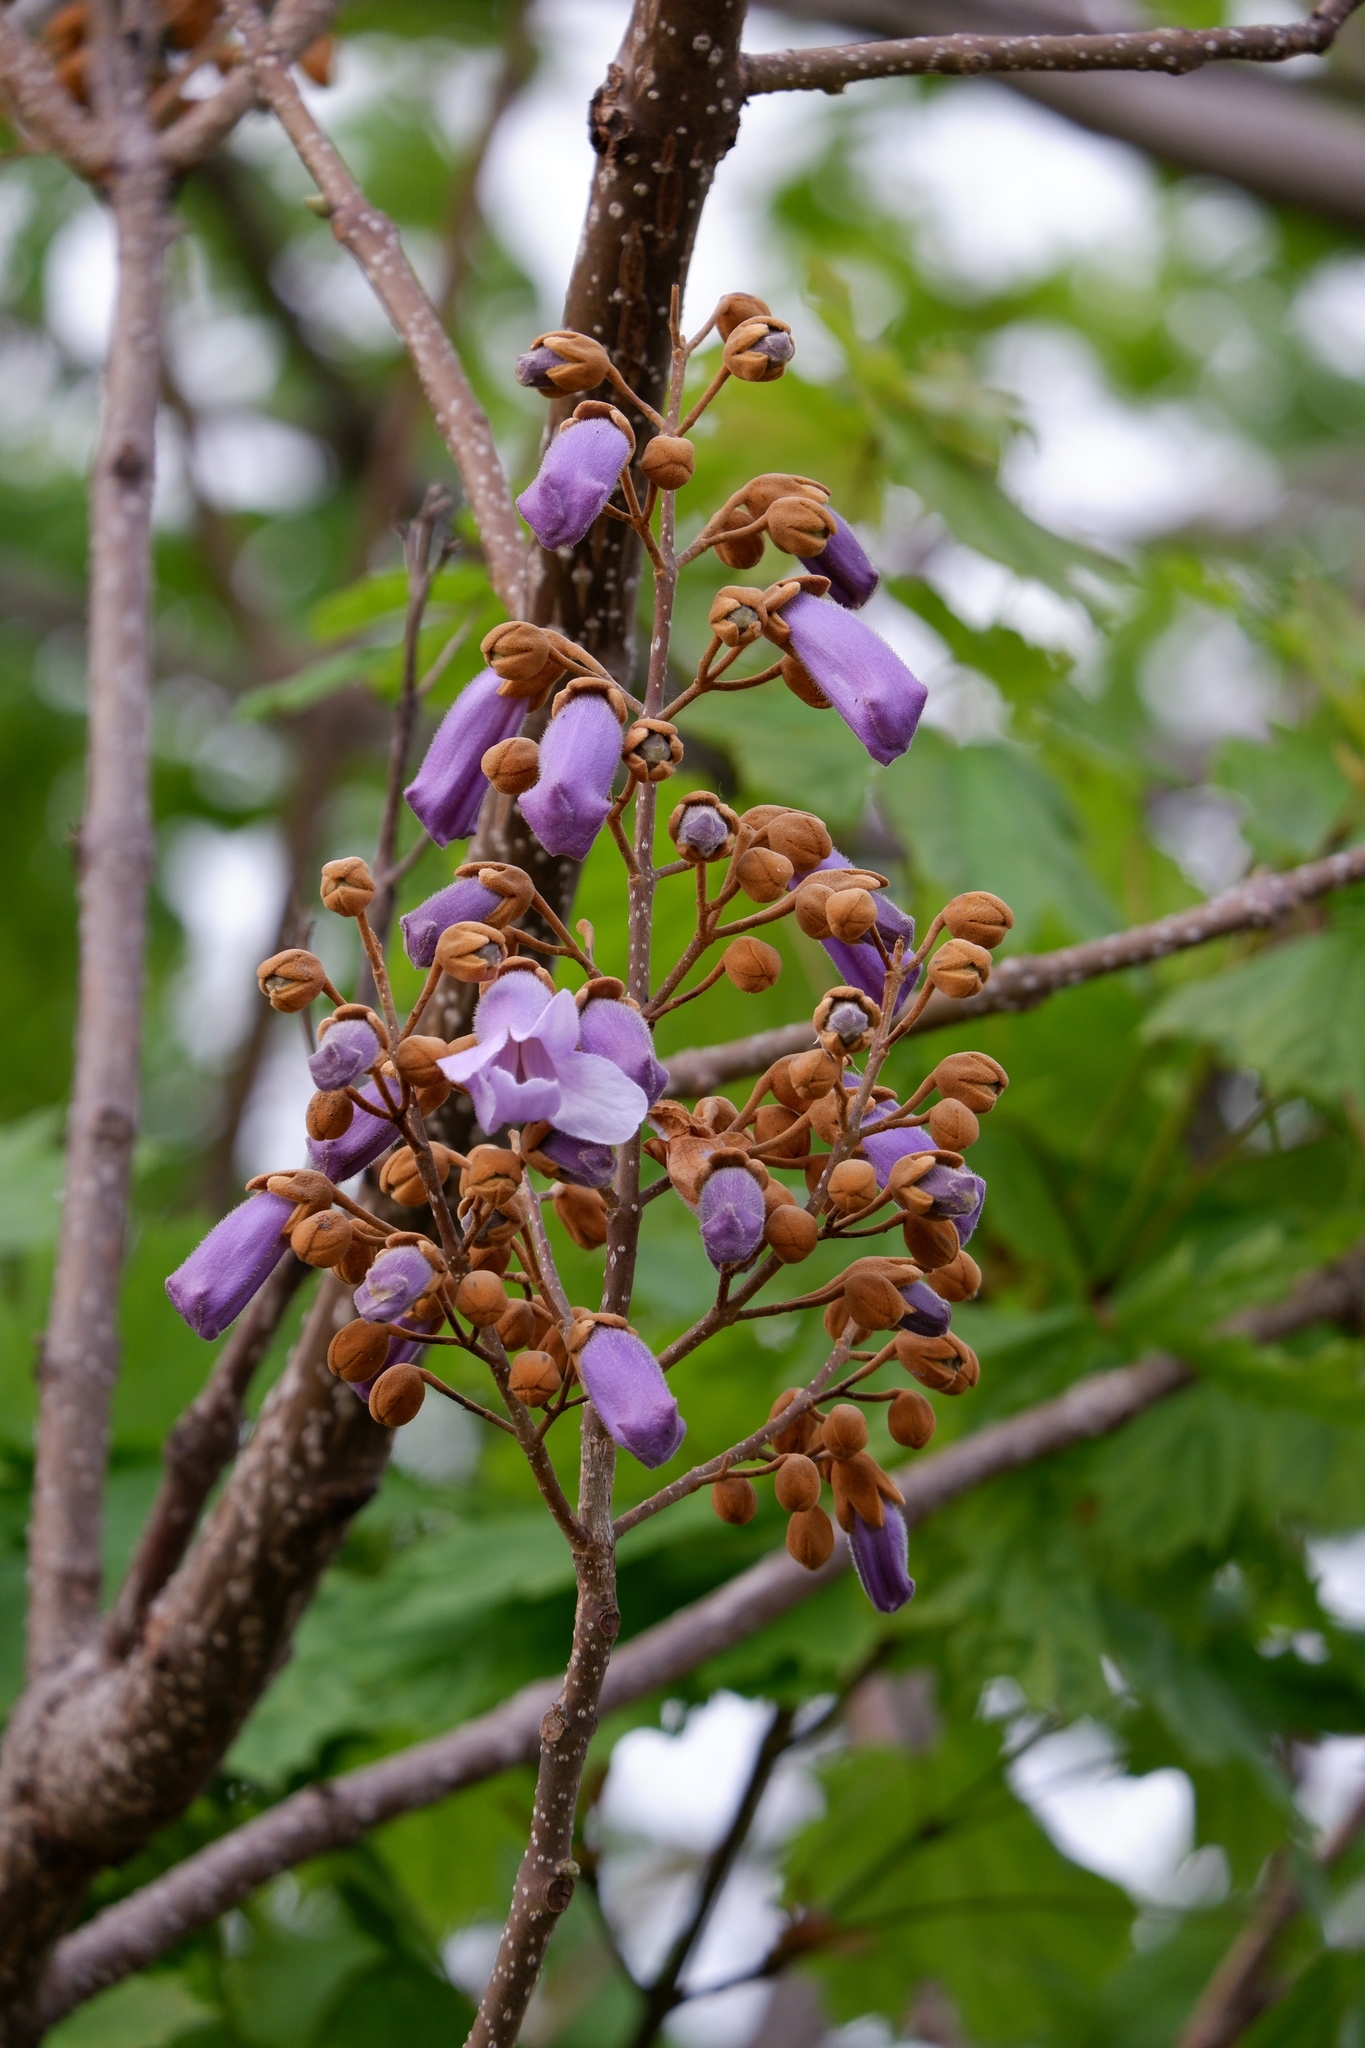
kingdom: Plantae
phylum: Tracheophyta
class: Magnoliopsida
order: Lamiales
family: Paulowniaceae
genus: Paulownia
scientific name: Paulownia tomentosa
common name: Foxglove-tree
